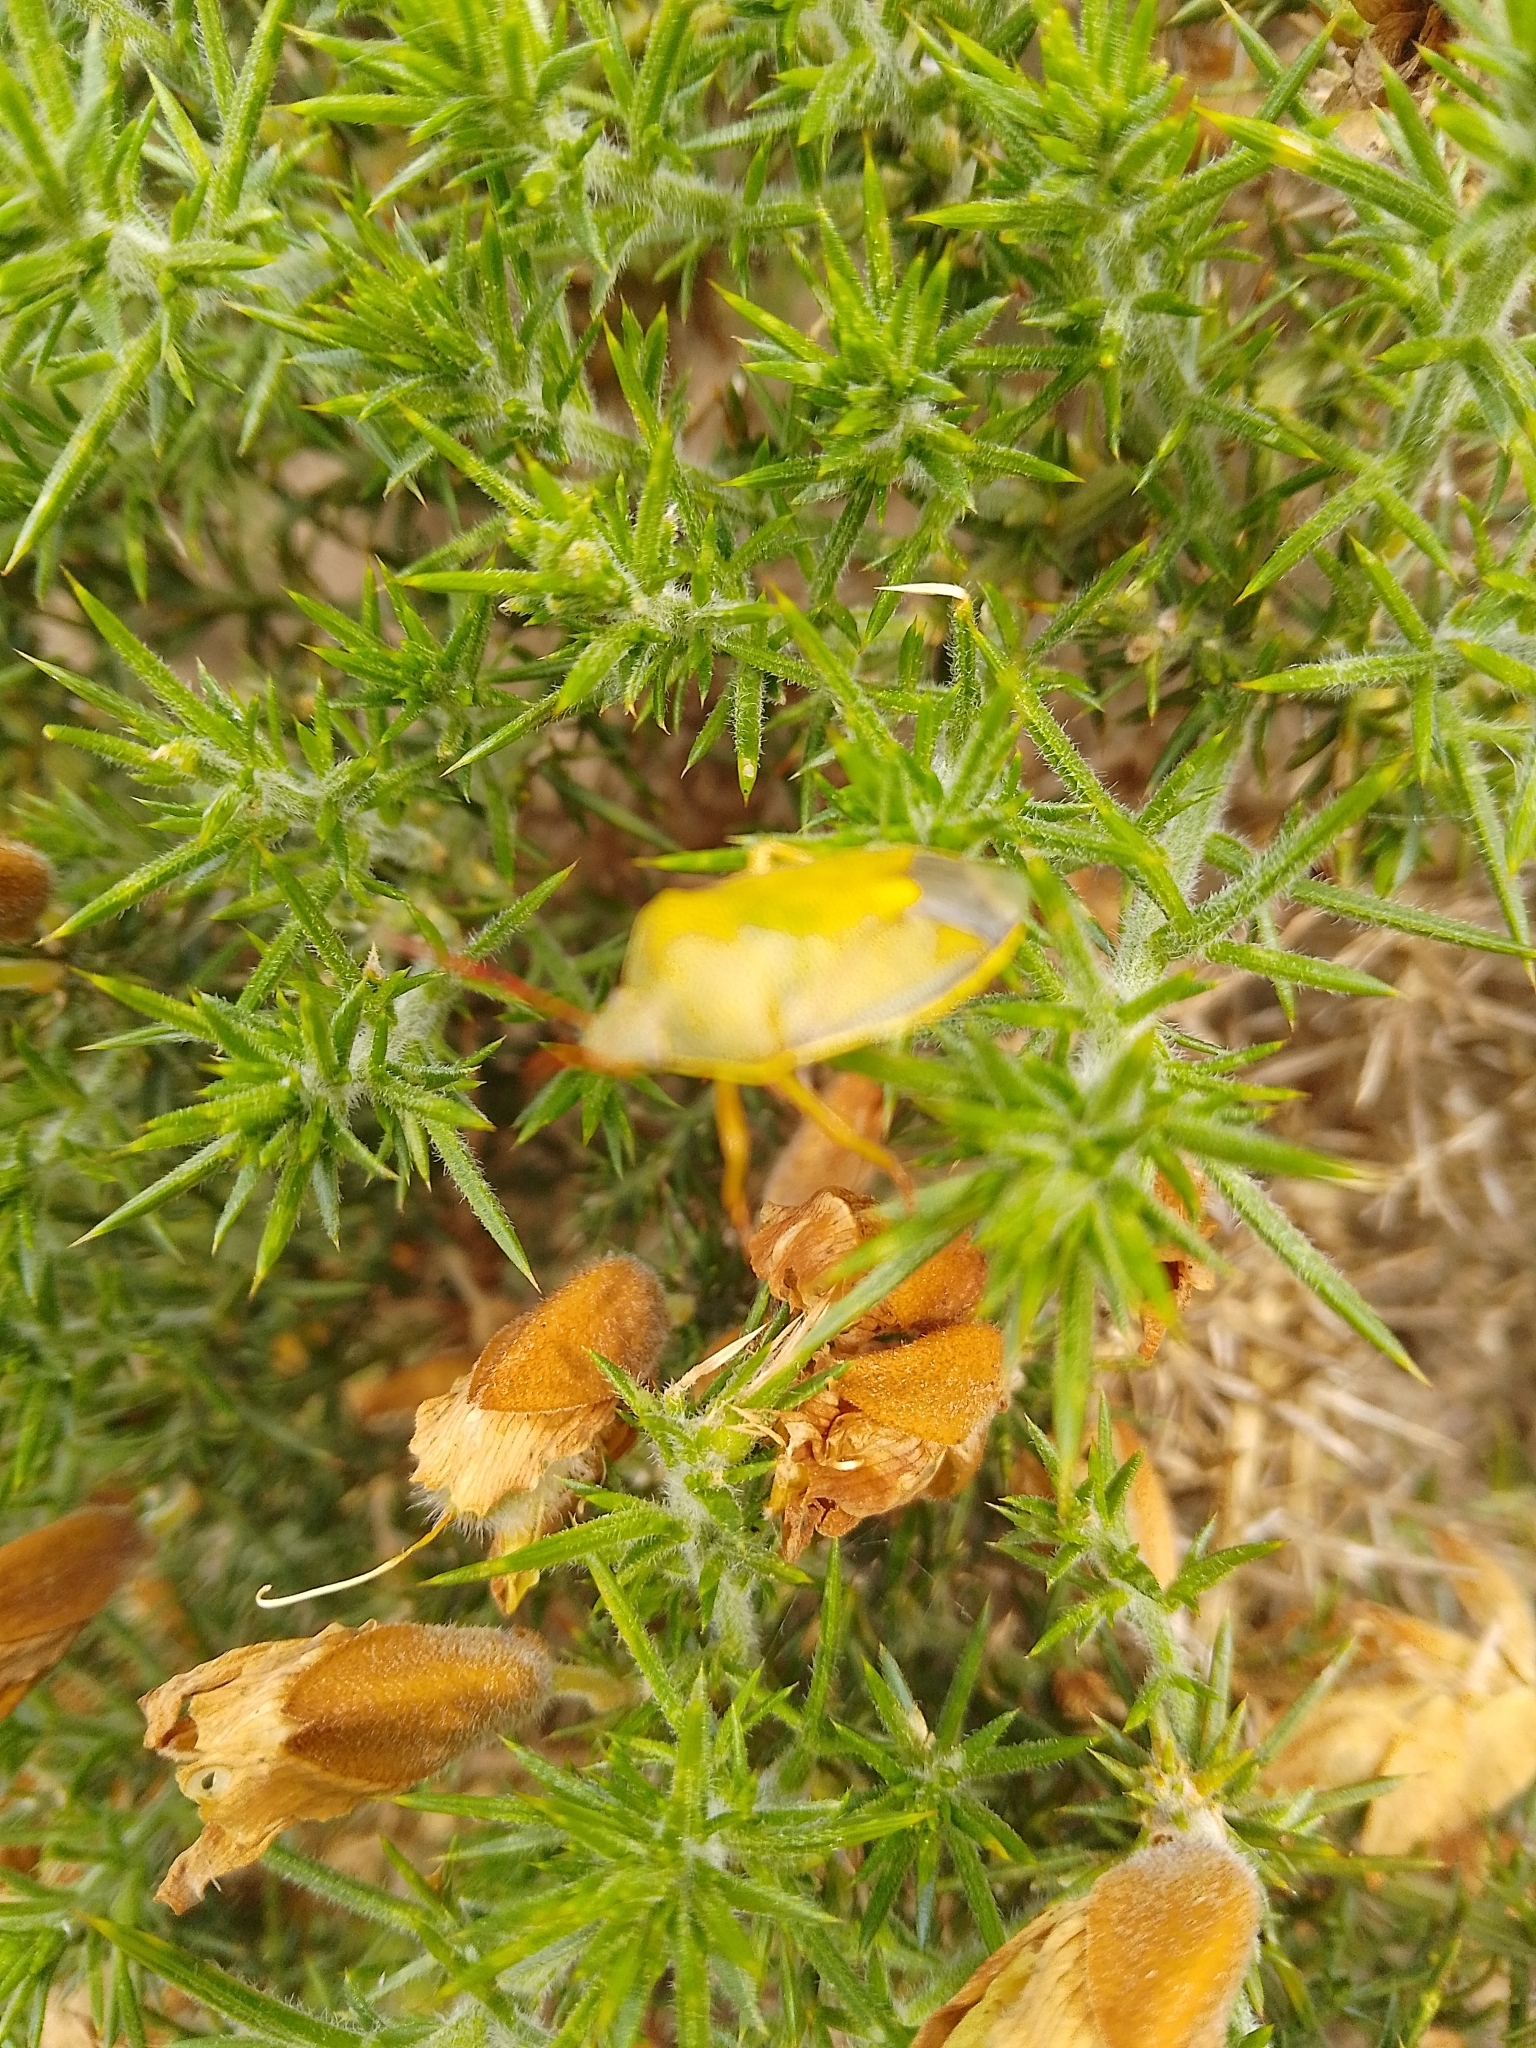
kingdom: Animalia
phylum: Arthropoda
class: Insecta
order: Hemiptera
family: Pentatomidae
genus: Piezodorus
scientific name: Piezodorus lituratus
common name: Stink bug
